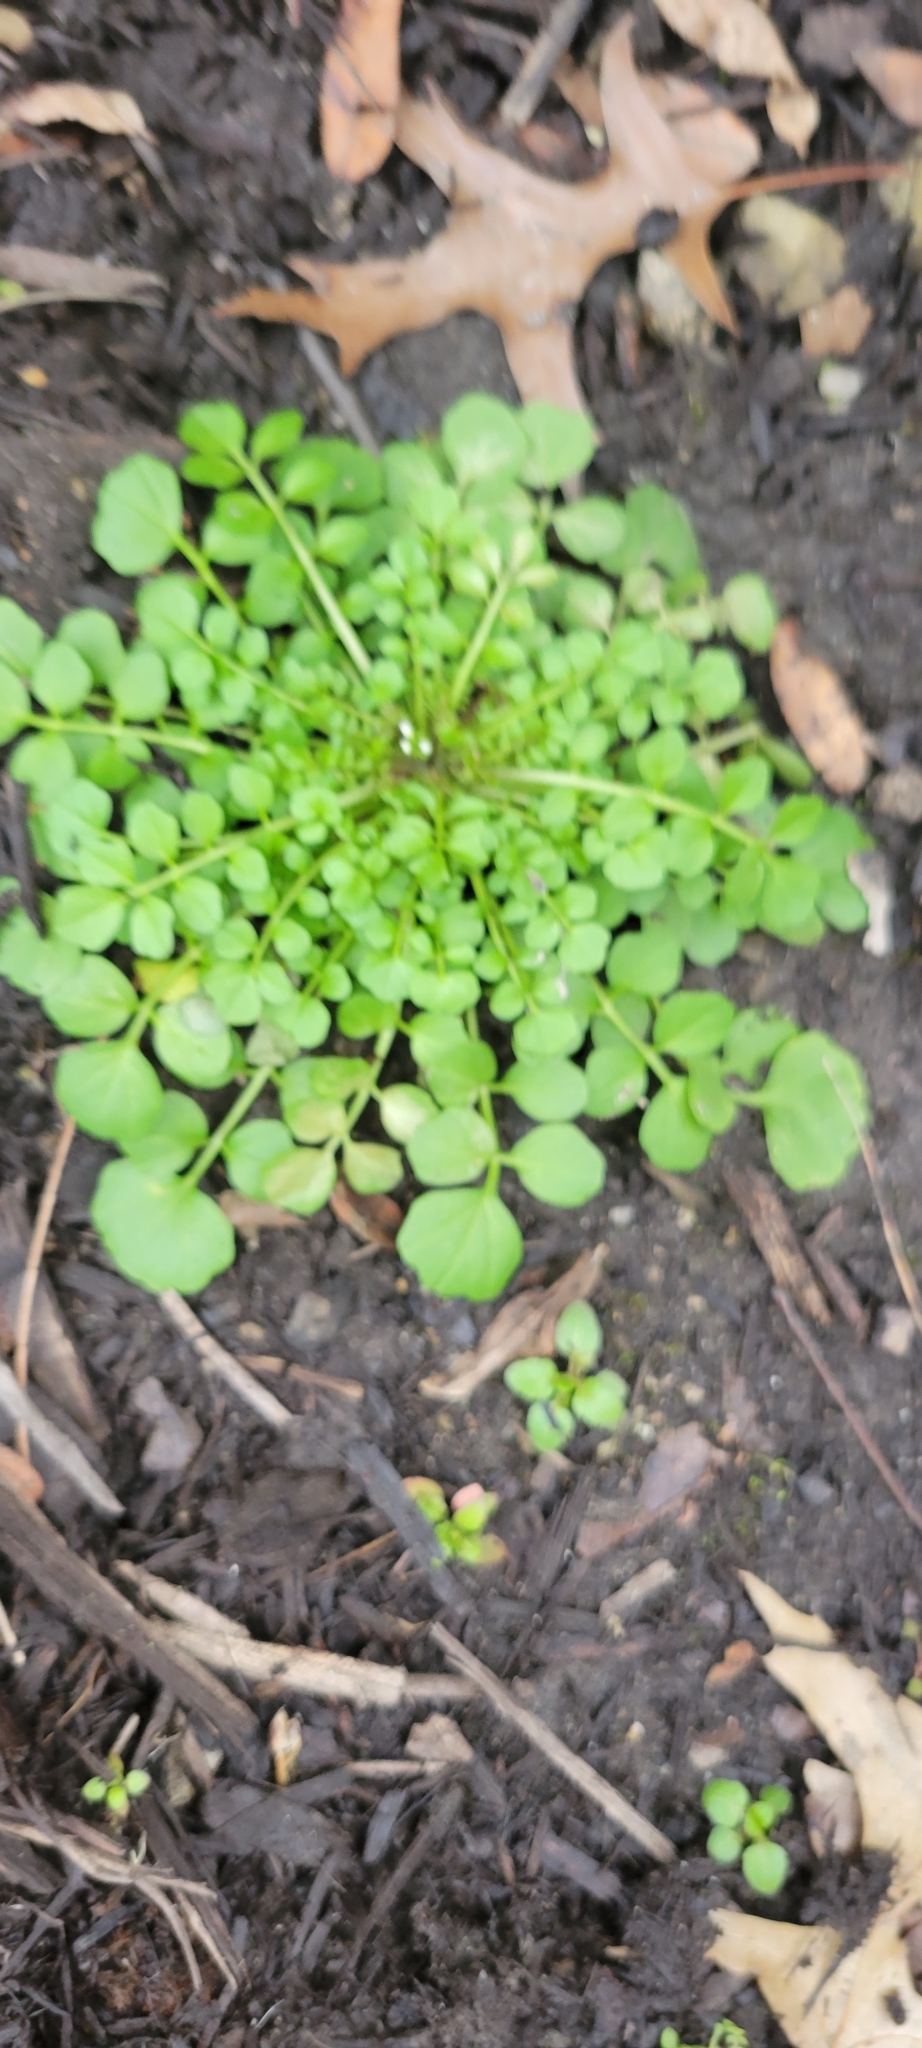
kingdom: Plantae
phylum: Tracheophyta
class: Magnoliopsida
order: Brassicales
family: Brassicaceae
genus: Cardamine
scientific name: Cardamine hirsuta
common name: Hairy bittercress
